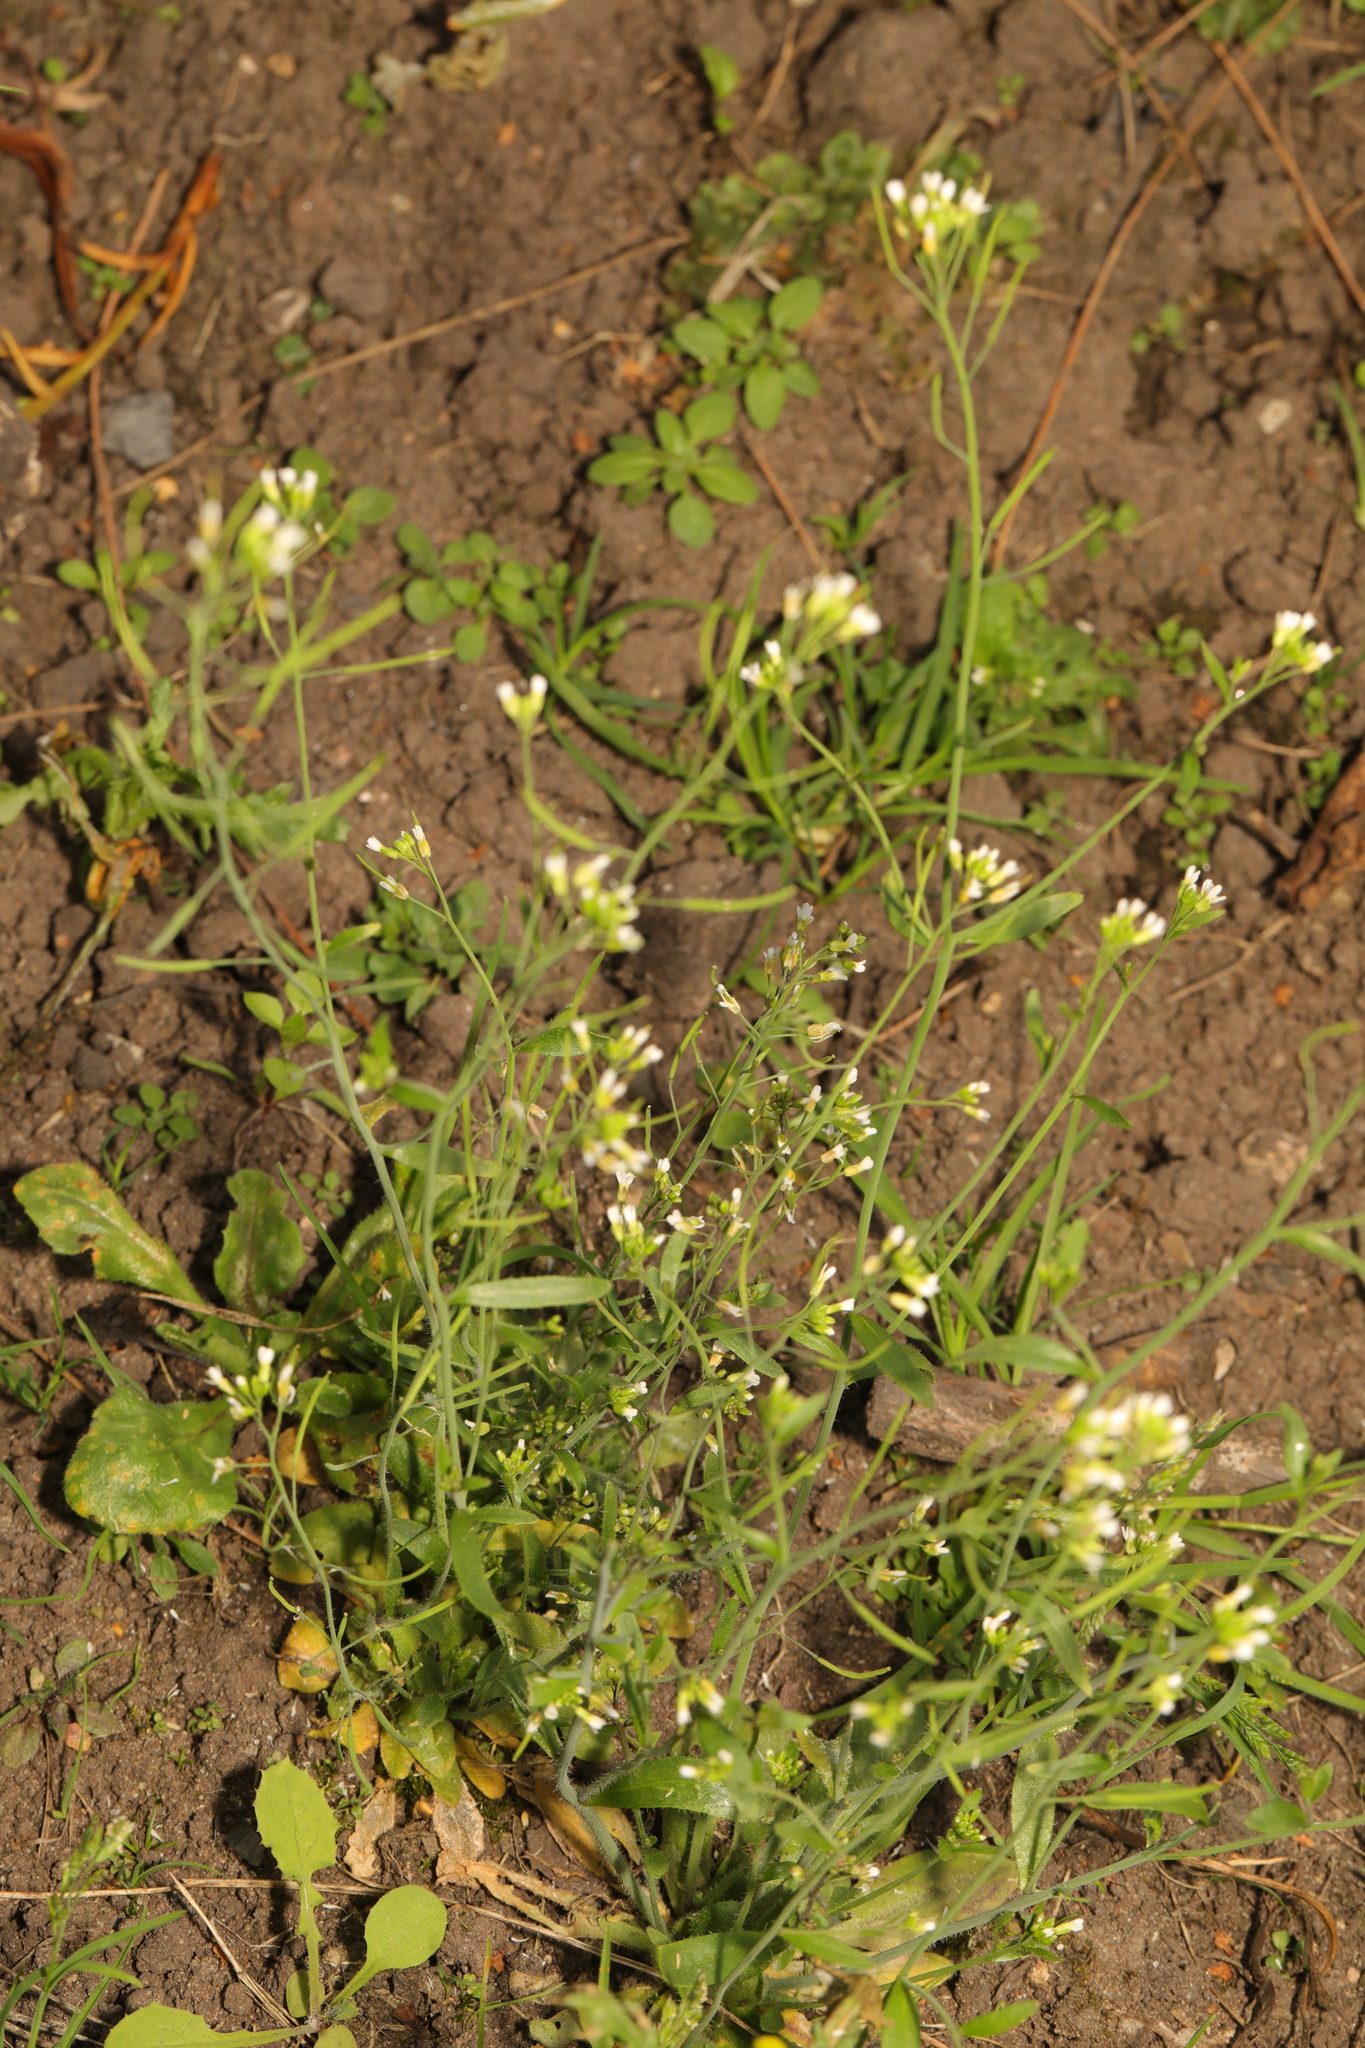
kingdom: Plantae
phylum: Tracheophyta
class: Magnoliopsida
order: Brassicales
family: Brassicaceae
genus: Arabidopsis
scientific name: Arabidopsis thaliana
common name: Thale cress
